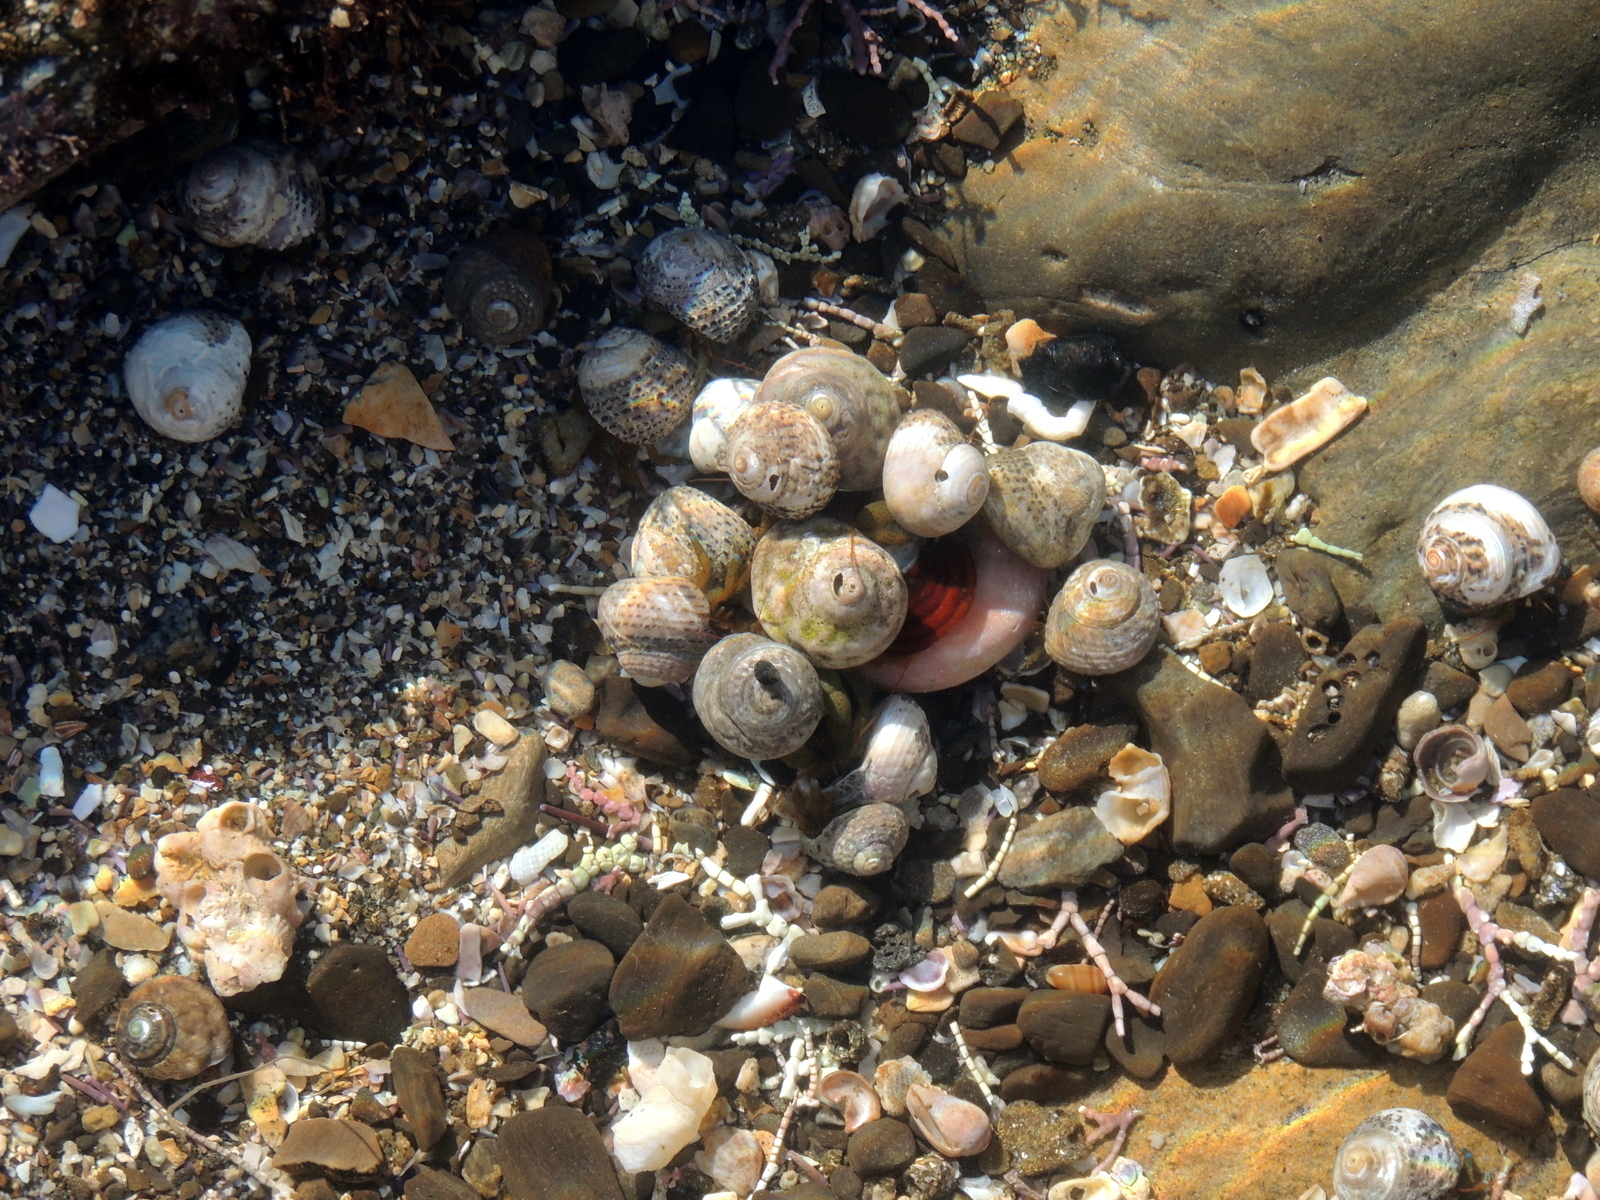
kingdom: Animalia
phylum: Arthropoda
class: Malacostraca
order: Decapoda
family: Paguridae
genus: Pagurus
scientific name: Pagurus samuelis
